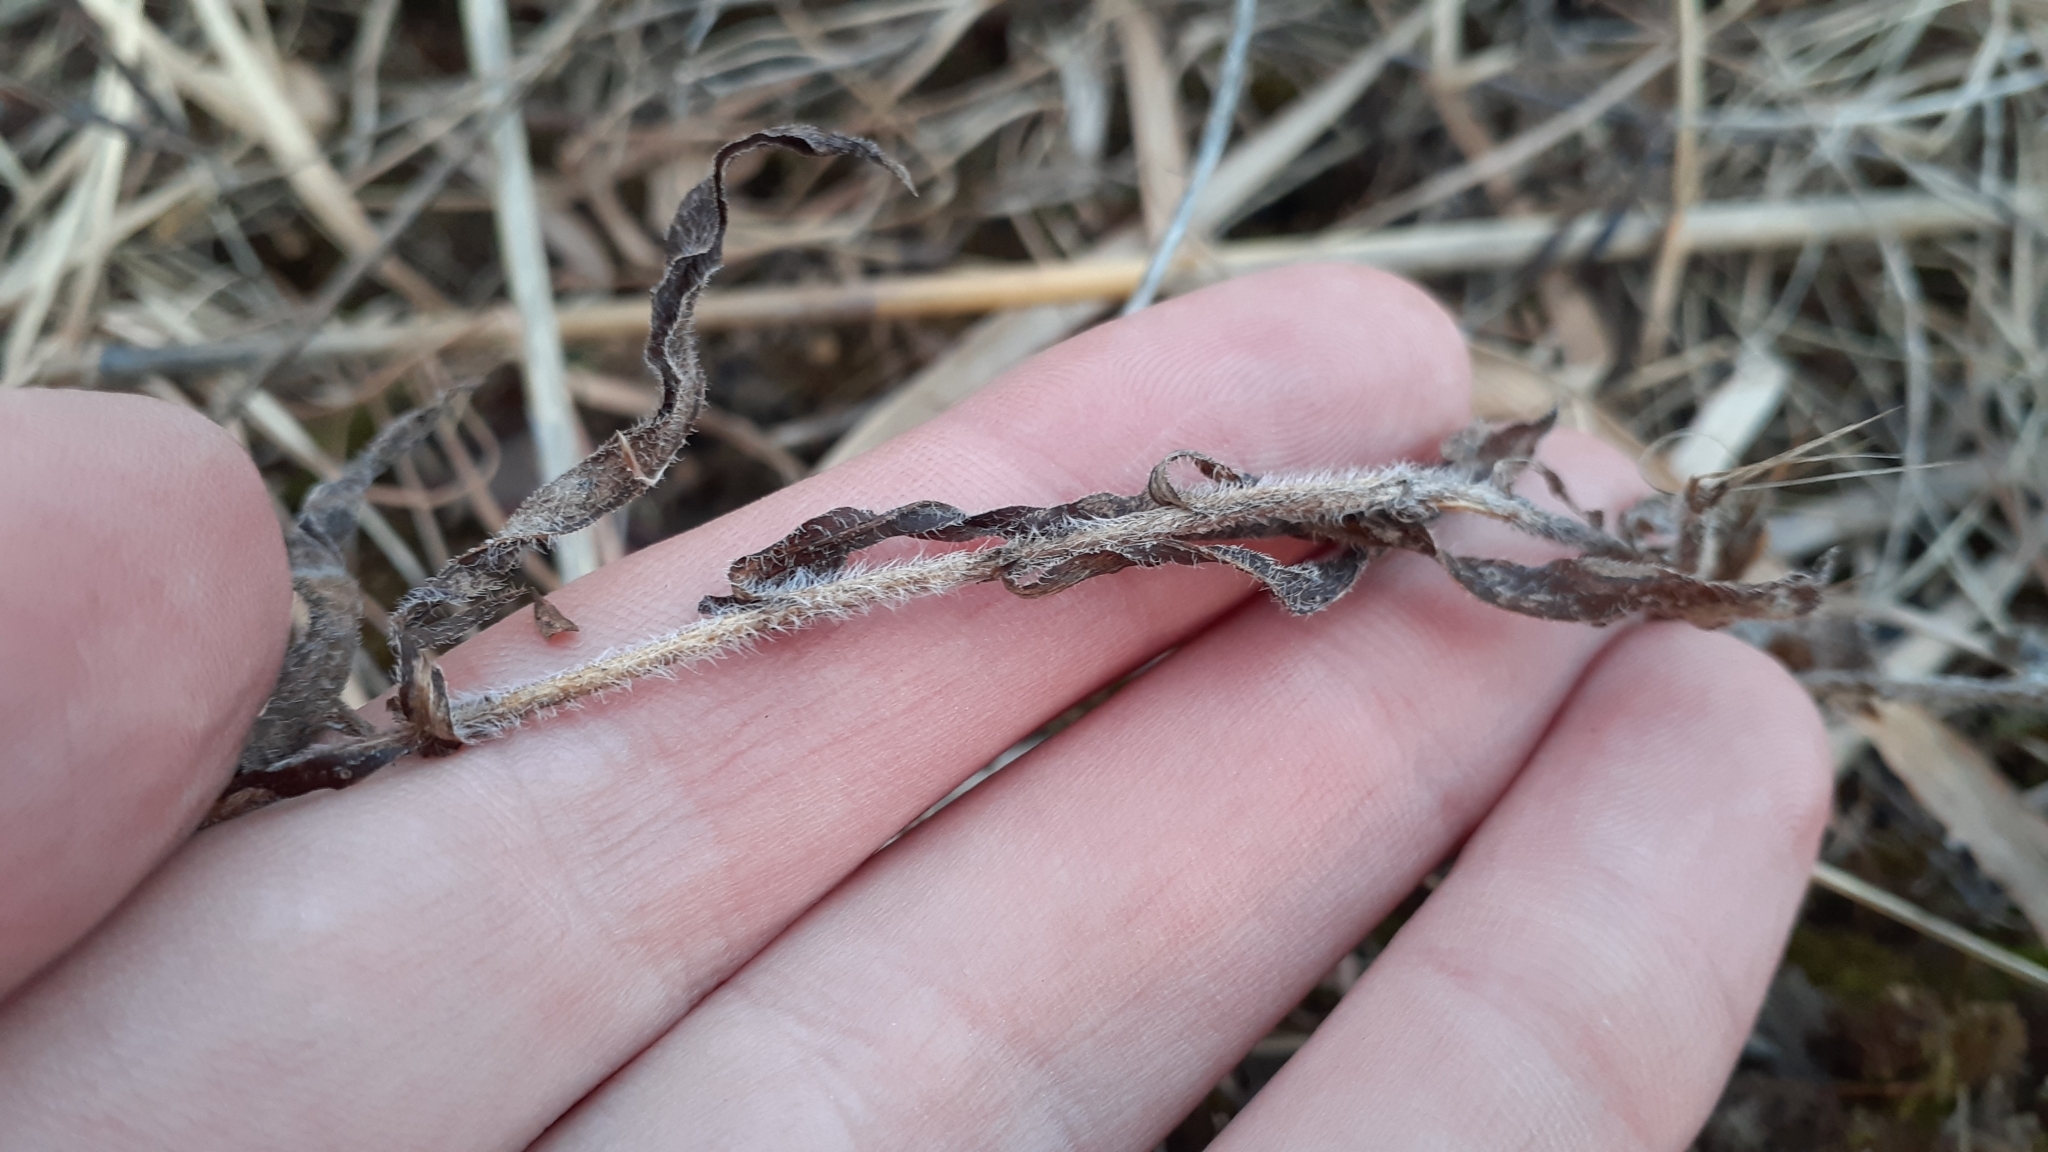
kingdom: Plantae
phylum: Tracheophyta
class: Magnoliopsida
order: Asterales
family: Asteraceae
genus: Symphyotrichum
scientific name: Symphyotrichum pilosum
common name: Awl aster
